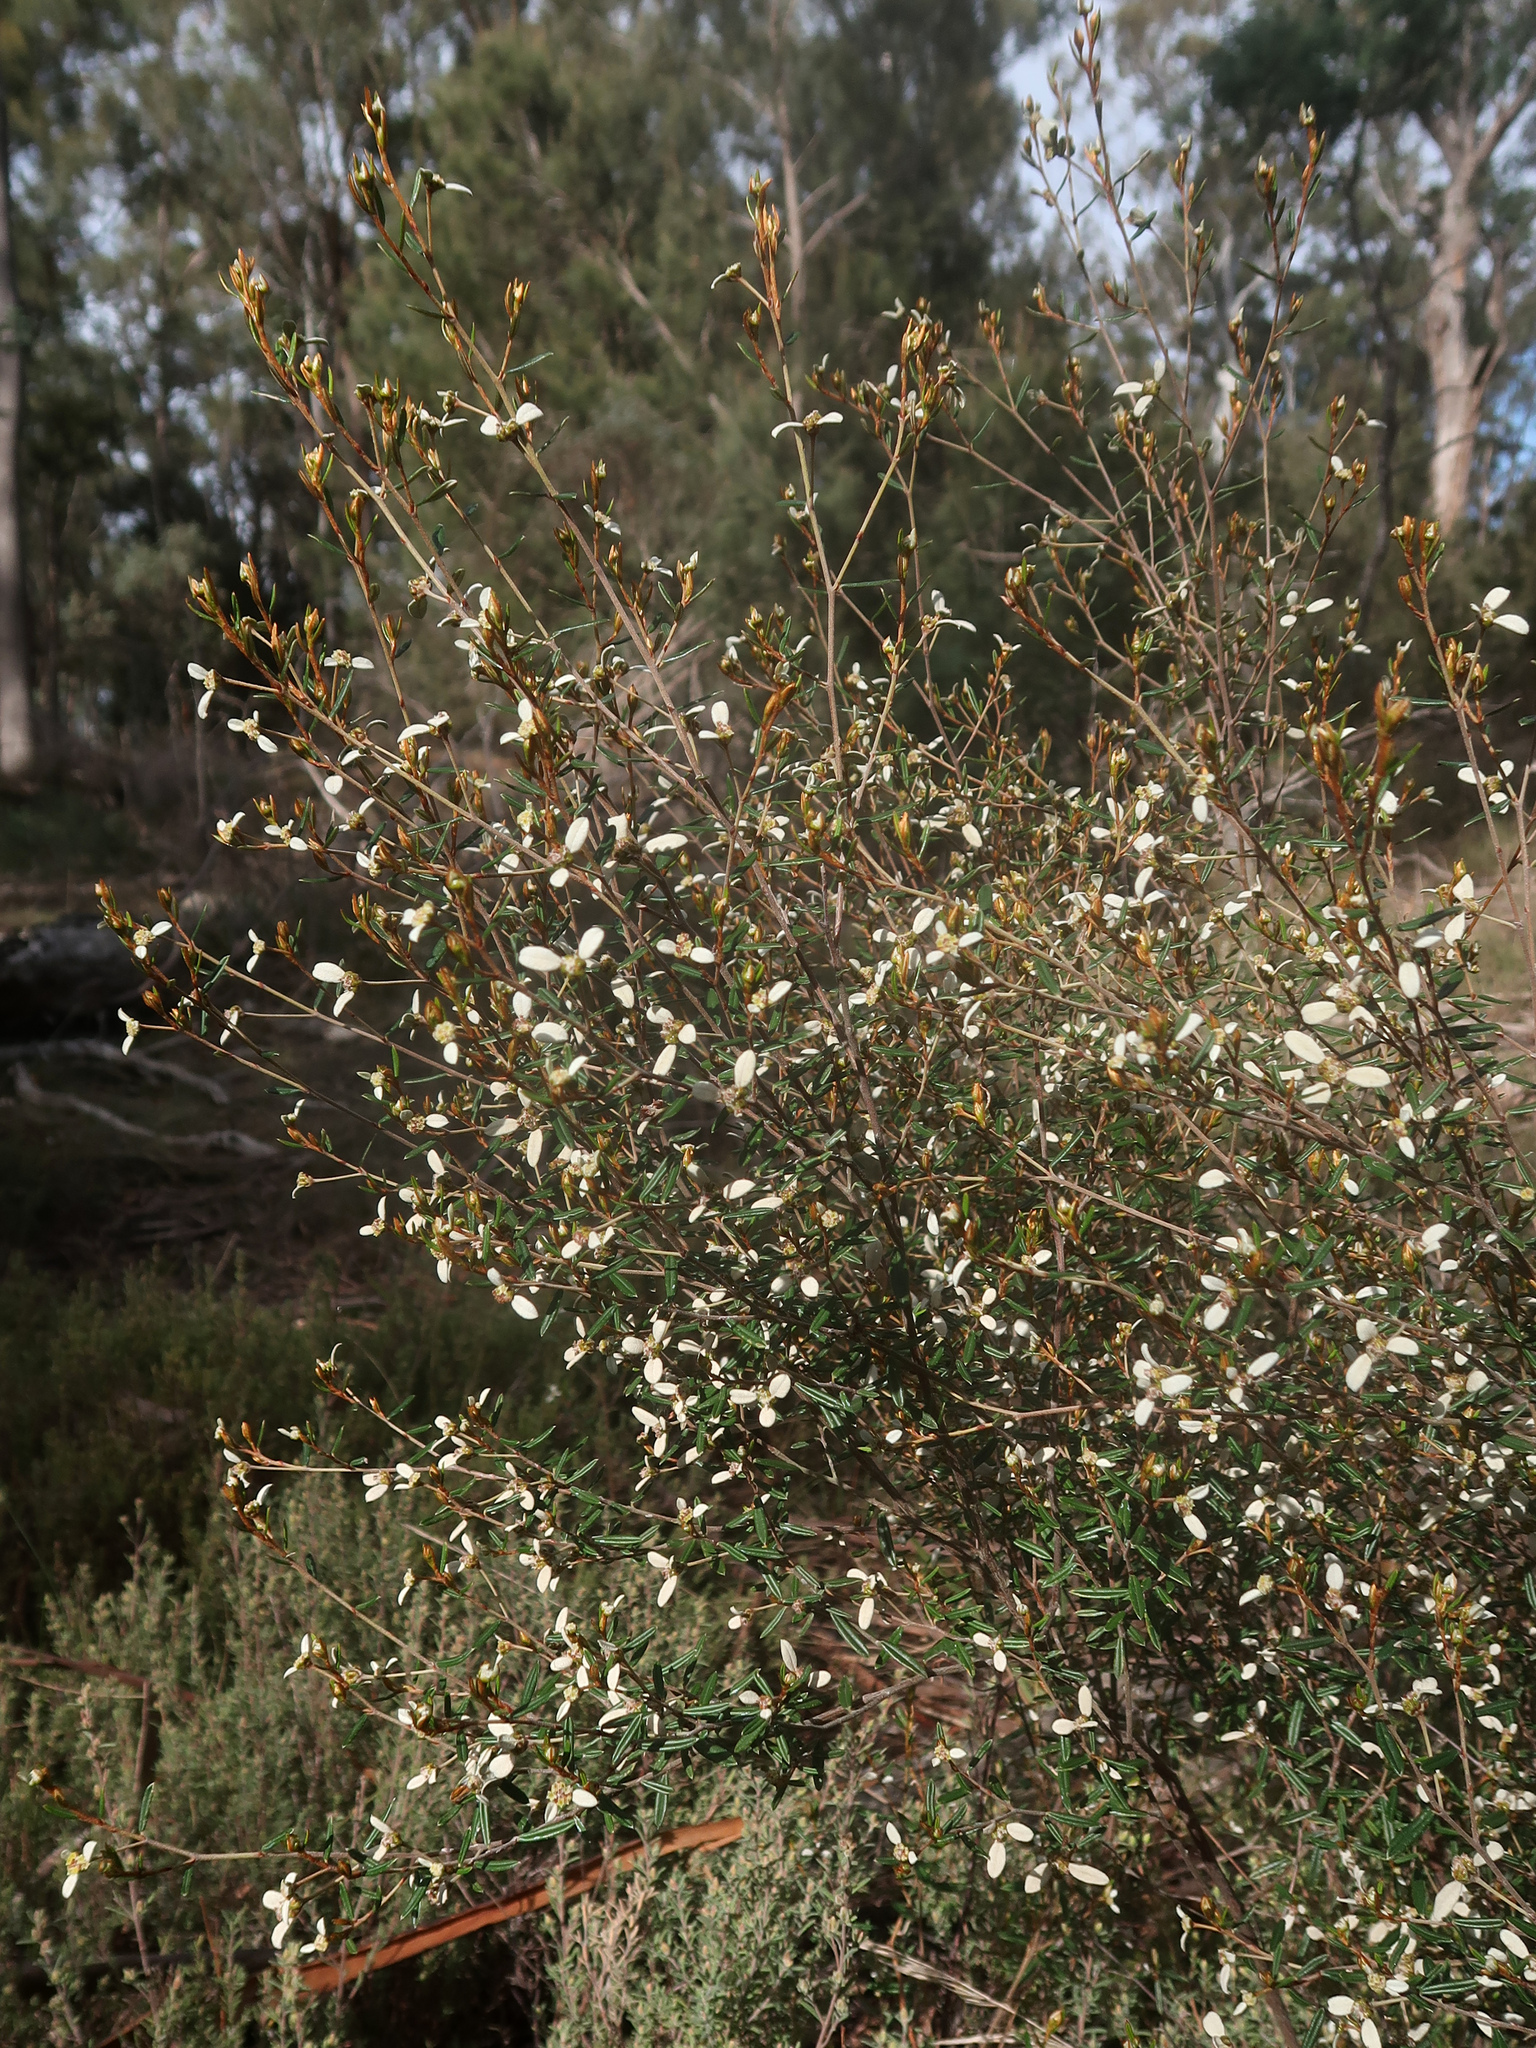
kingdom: Plantae
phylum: Tracheophyta
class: Magnoliopsida
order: Rosales
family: Rhamnaceae
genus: Spyridium
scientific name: Spyridium vexilliferum
